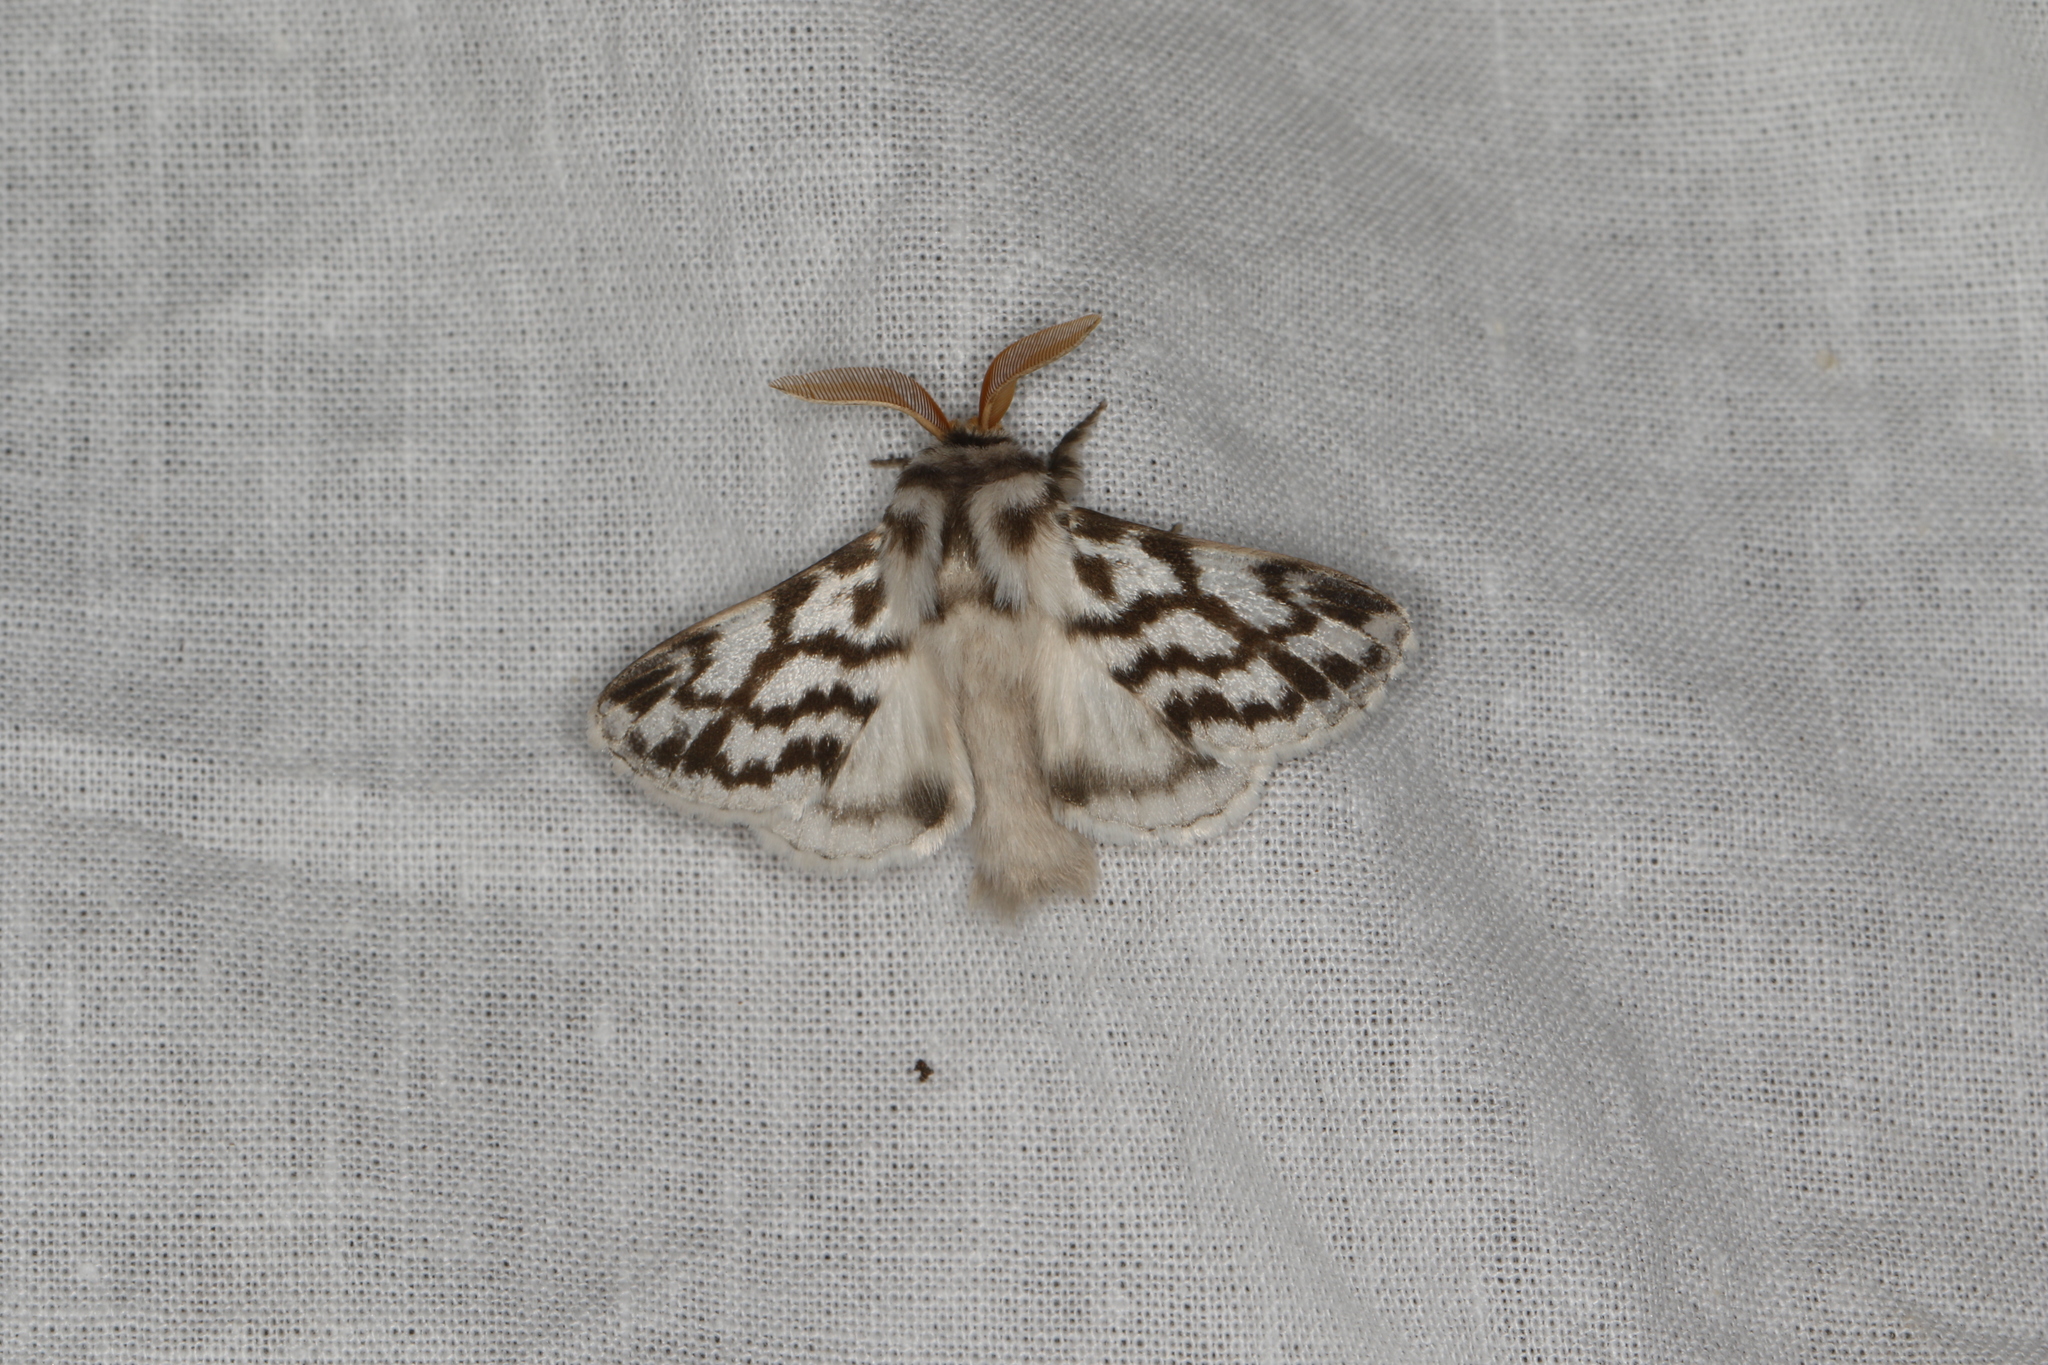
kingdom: Animalia
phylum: Arthropoda
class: Insecta
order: Lepidoptera
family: Lasiocampidae
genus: Pernattia
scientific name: Pernattia chlorophragma
